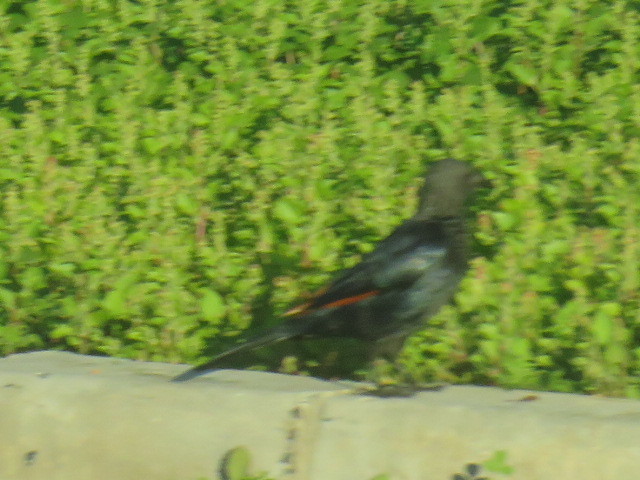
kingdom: Animalia
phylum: Chordata
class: Aves
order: Passeriformes
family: Sturnidae
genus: Onychognathus
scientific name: Onychognathus morio
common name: Red-winged starling
